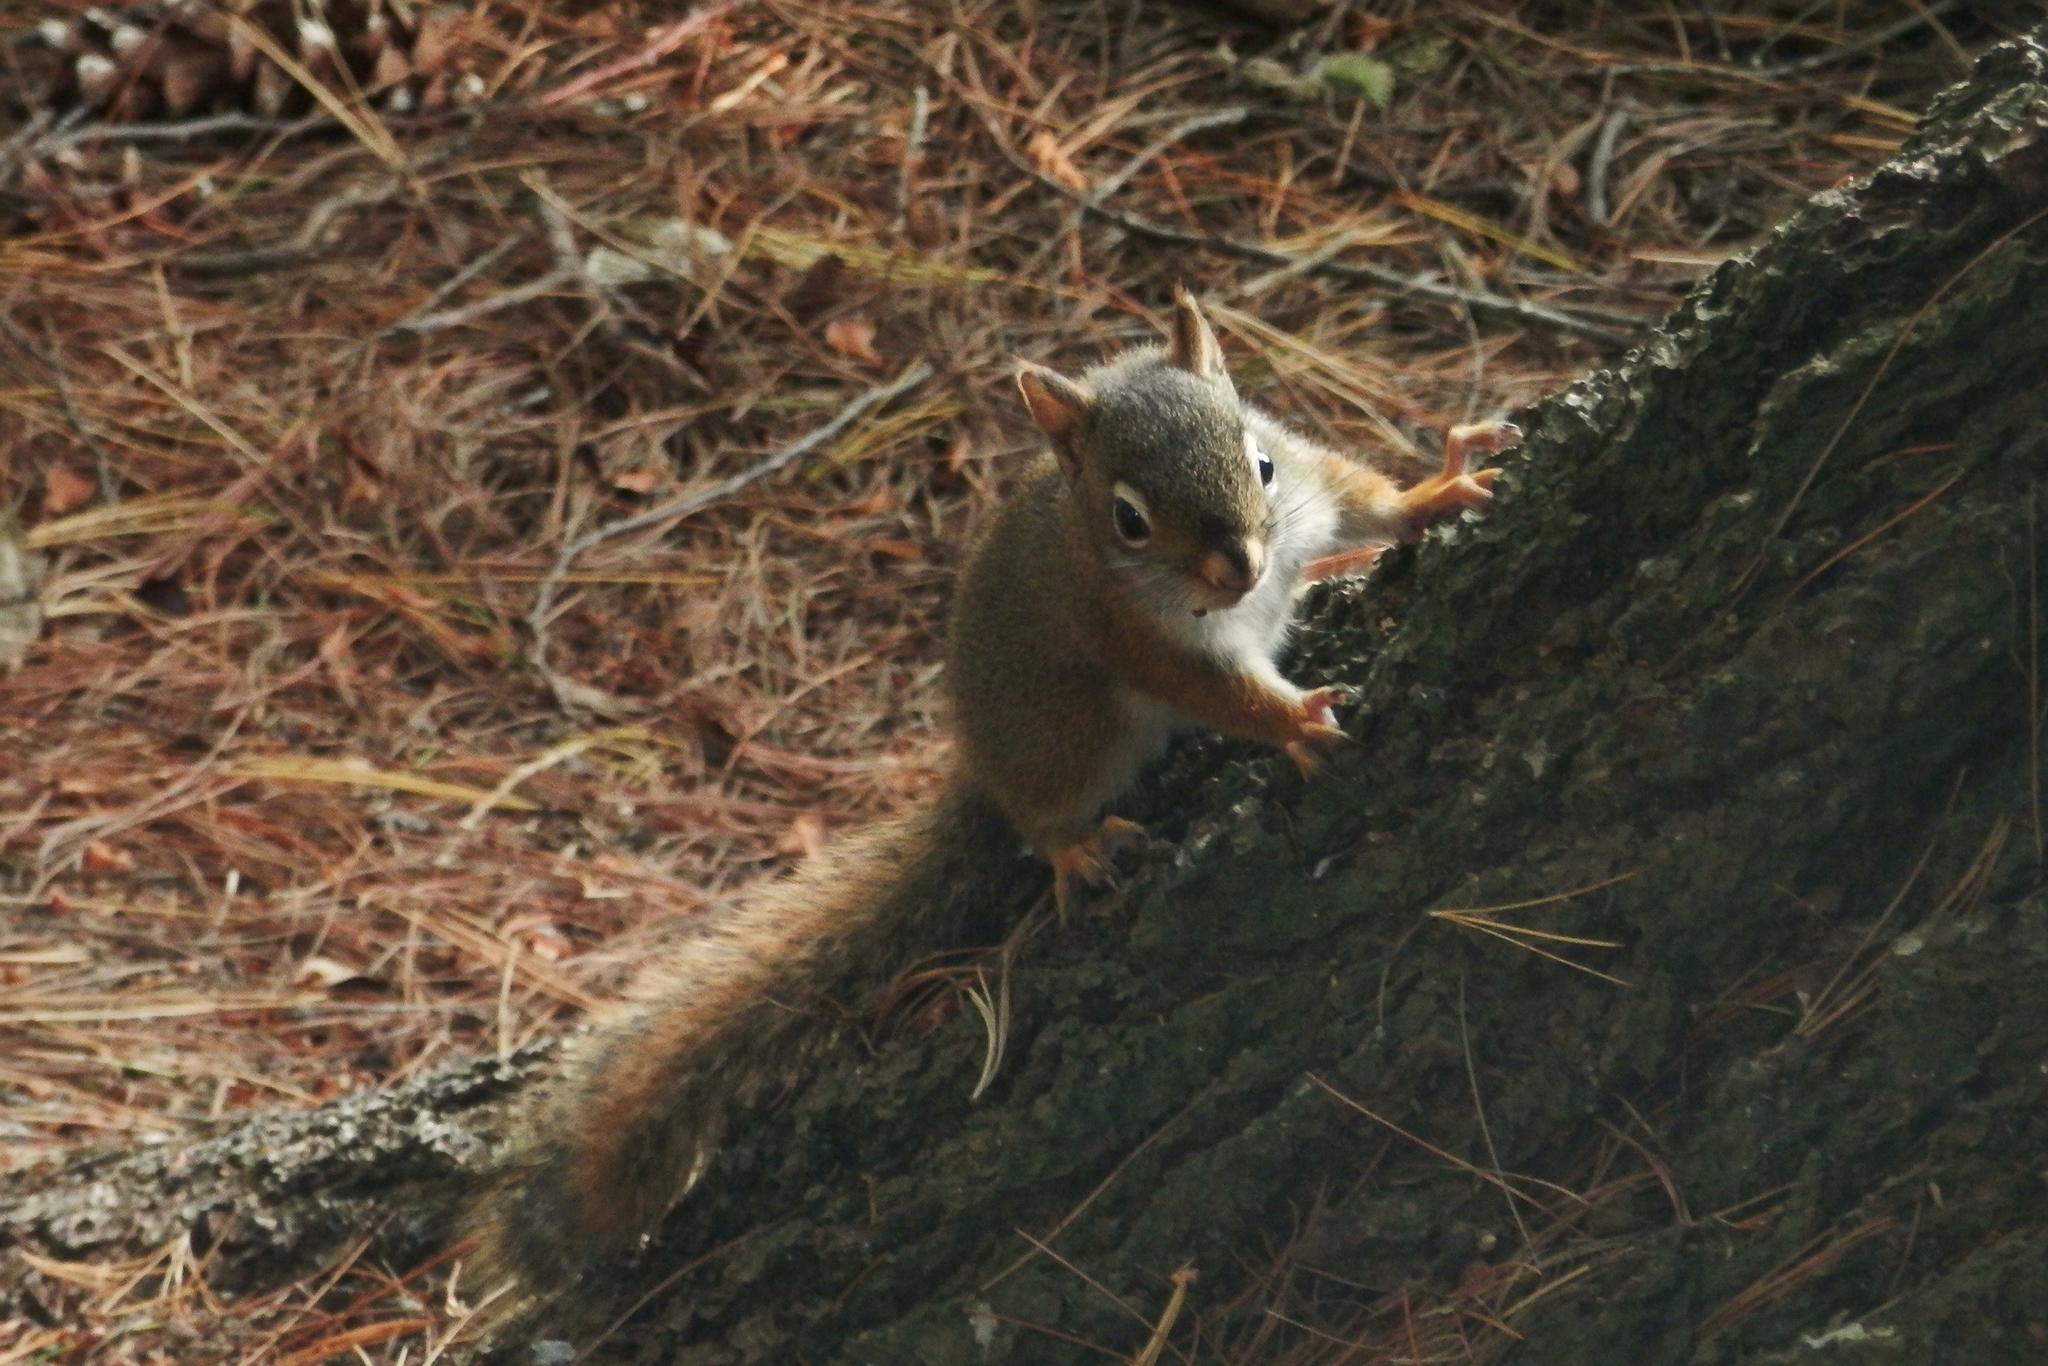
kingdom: Animalia
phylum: Chordata
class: Mammalia
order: Rodentia
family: Sciuridae
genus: Tamiasciurus
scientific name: Tamiasciurus hudsonicus
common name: Red squirrel
